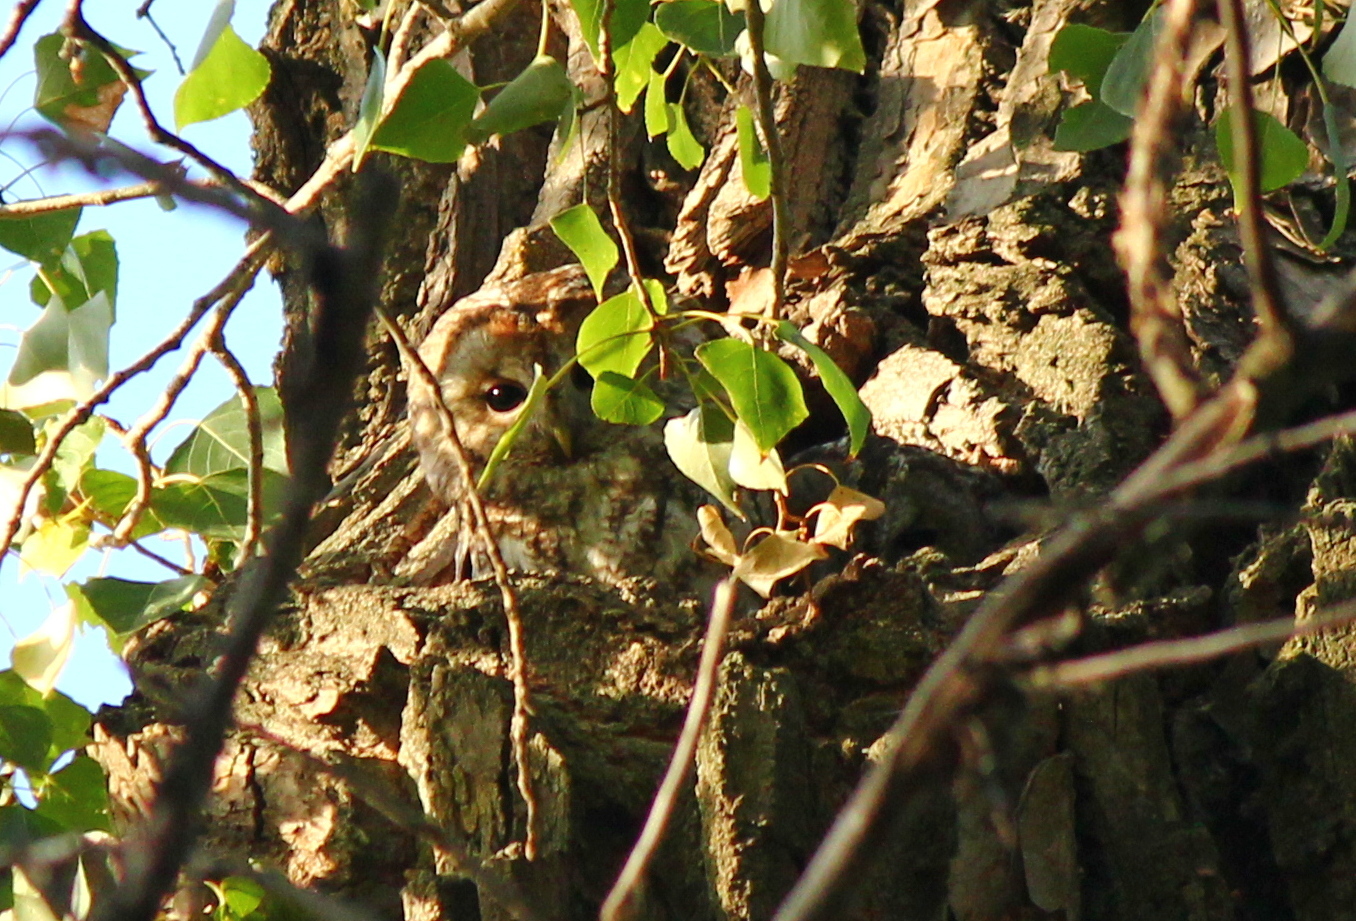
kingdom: Animalia
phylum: Chordata
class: Aves
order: Strigiformes
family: Strigidae
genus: Strix
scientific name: Strix aluco
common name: Tawny owl
